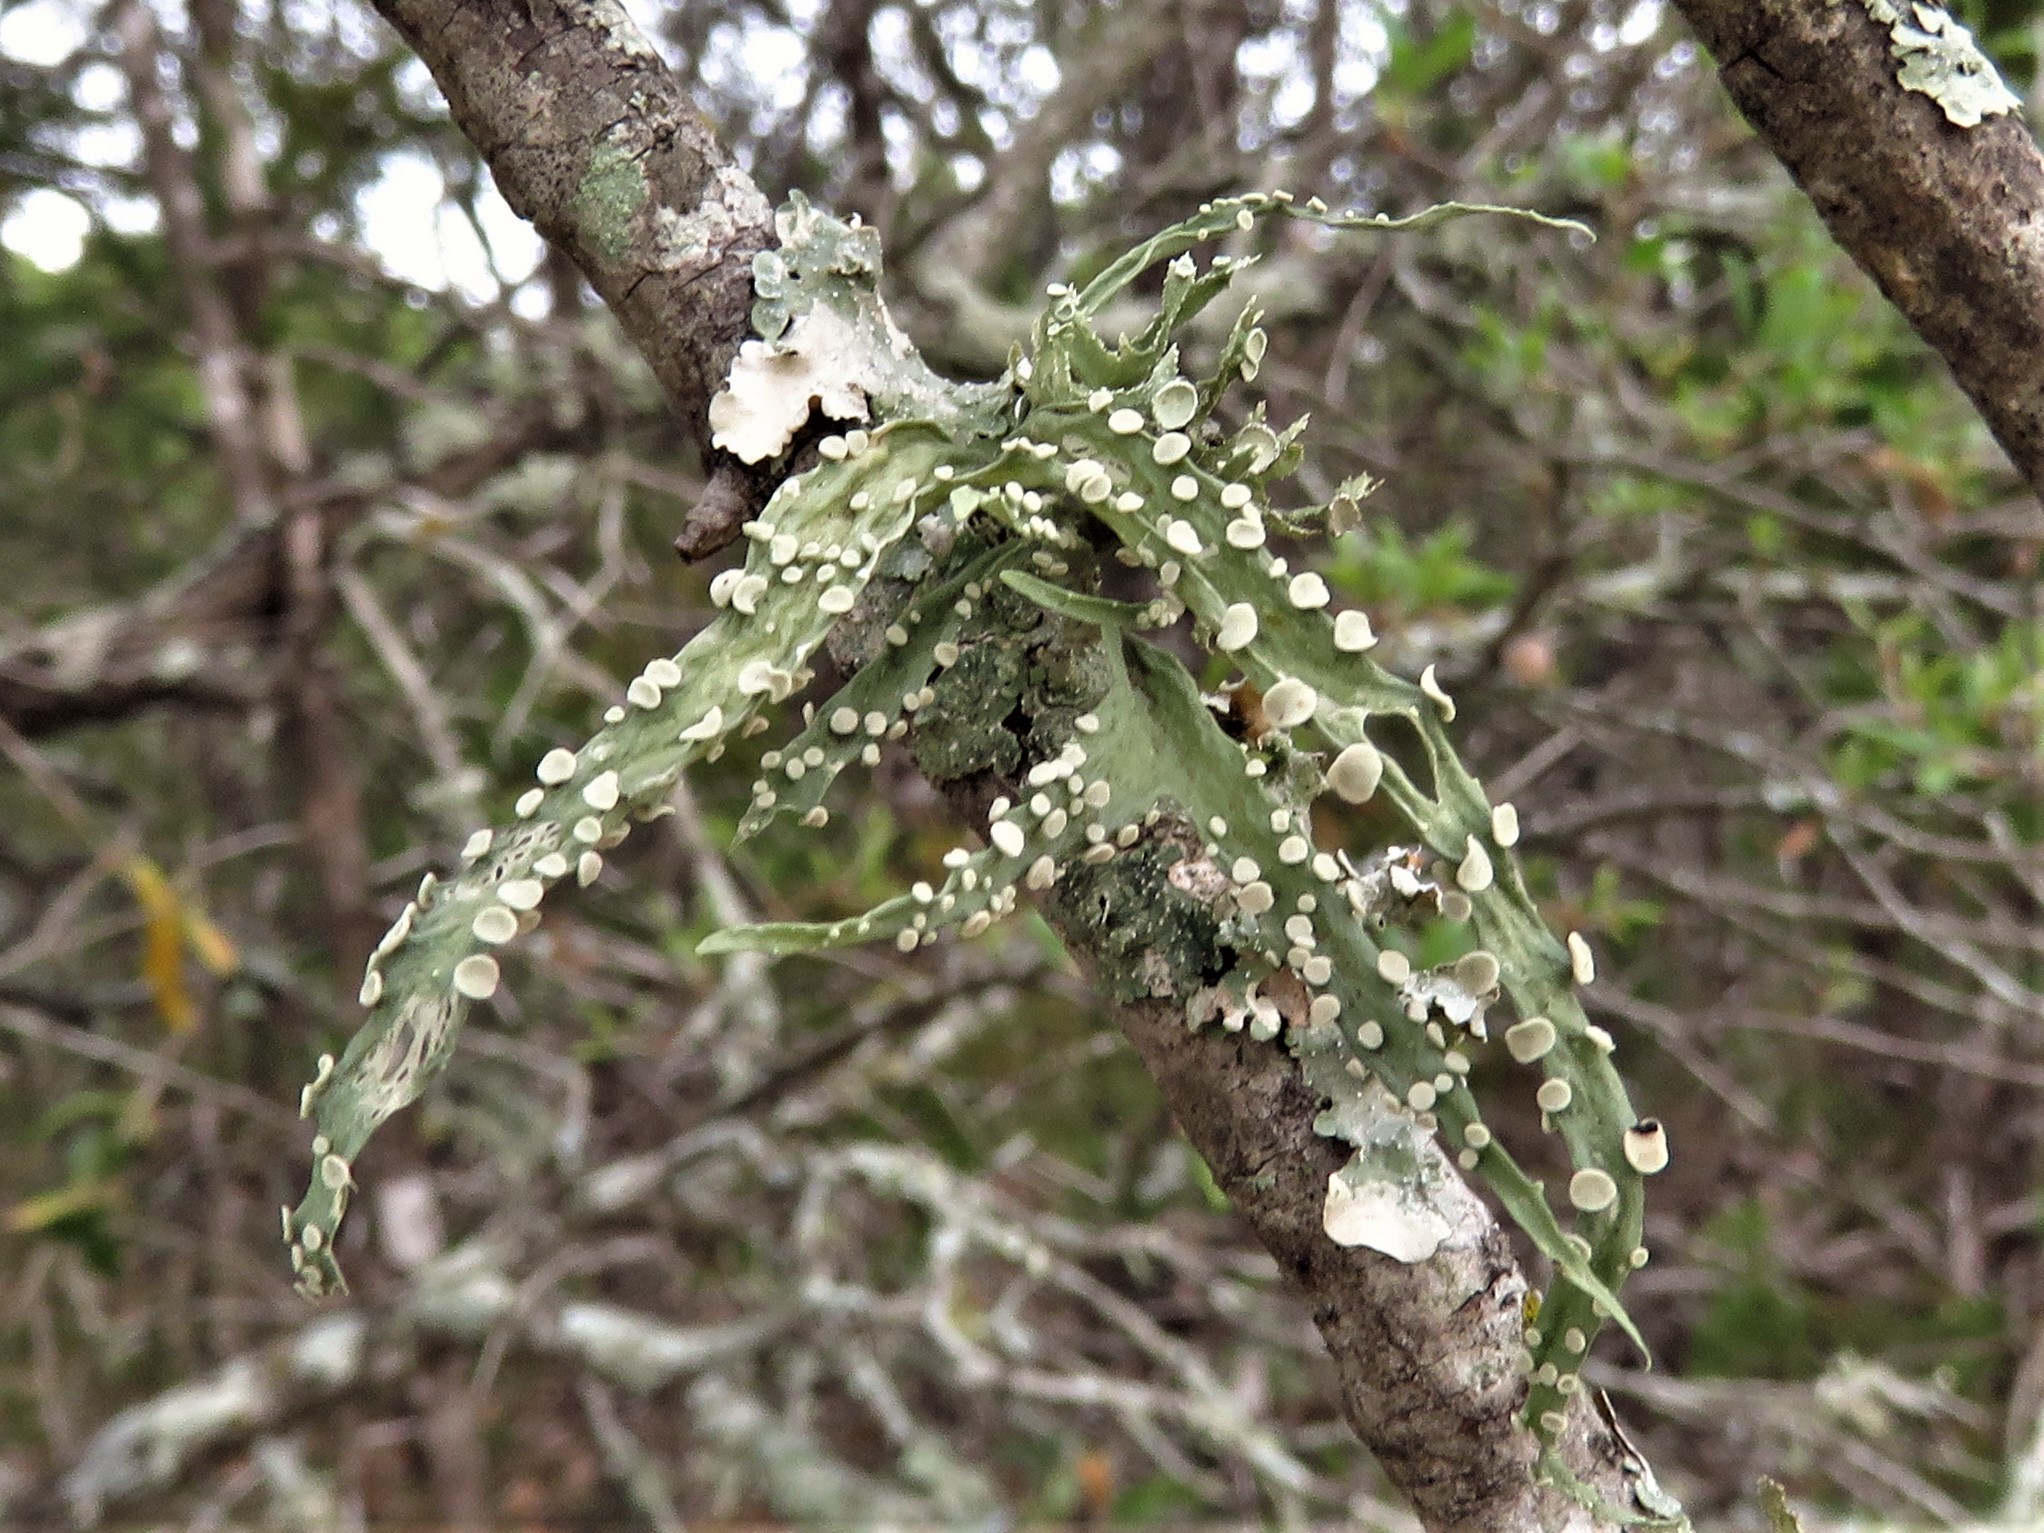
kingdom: Fungi
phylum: Ascomycota
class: Lecanoromycetes
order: Lecanorales
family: Ramalinaceae
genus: Ramalina
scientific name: Ramalina celastri
